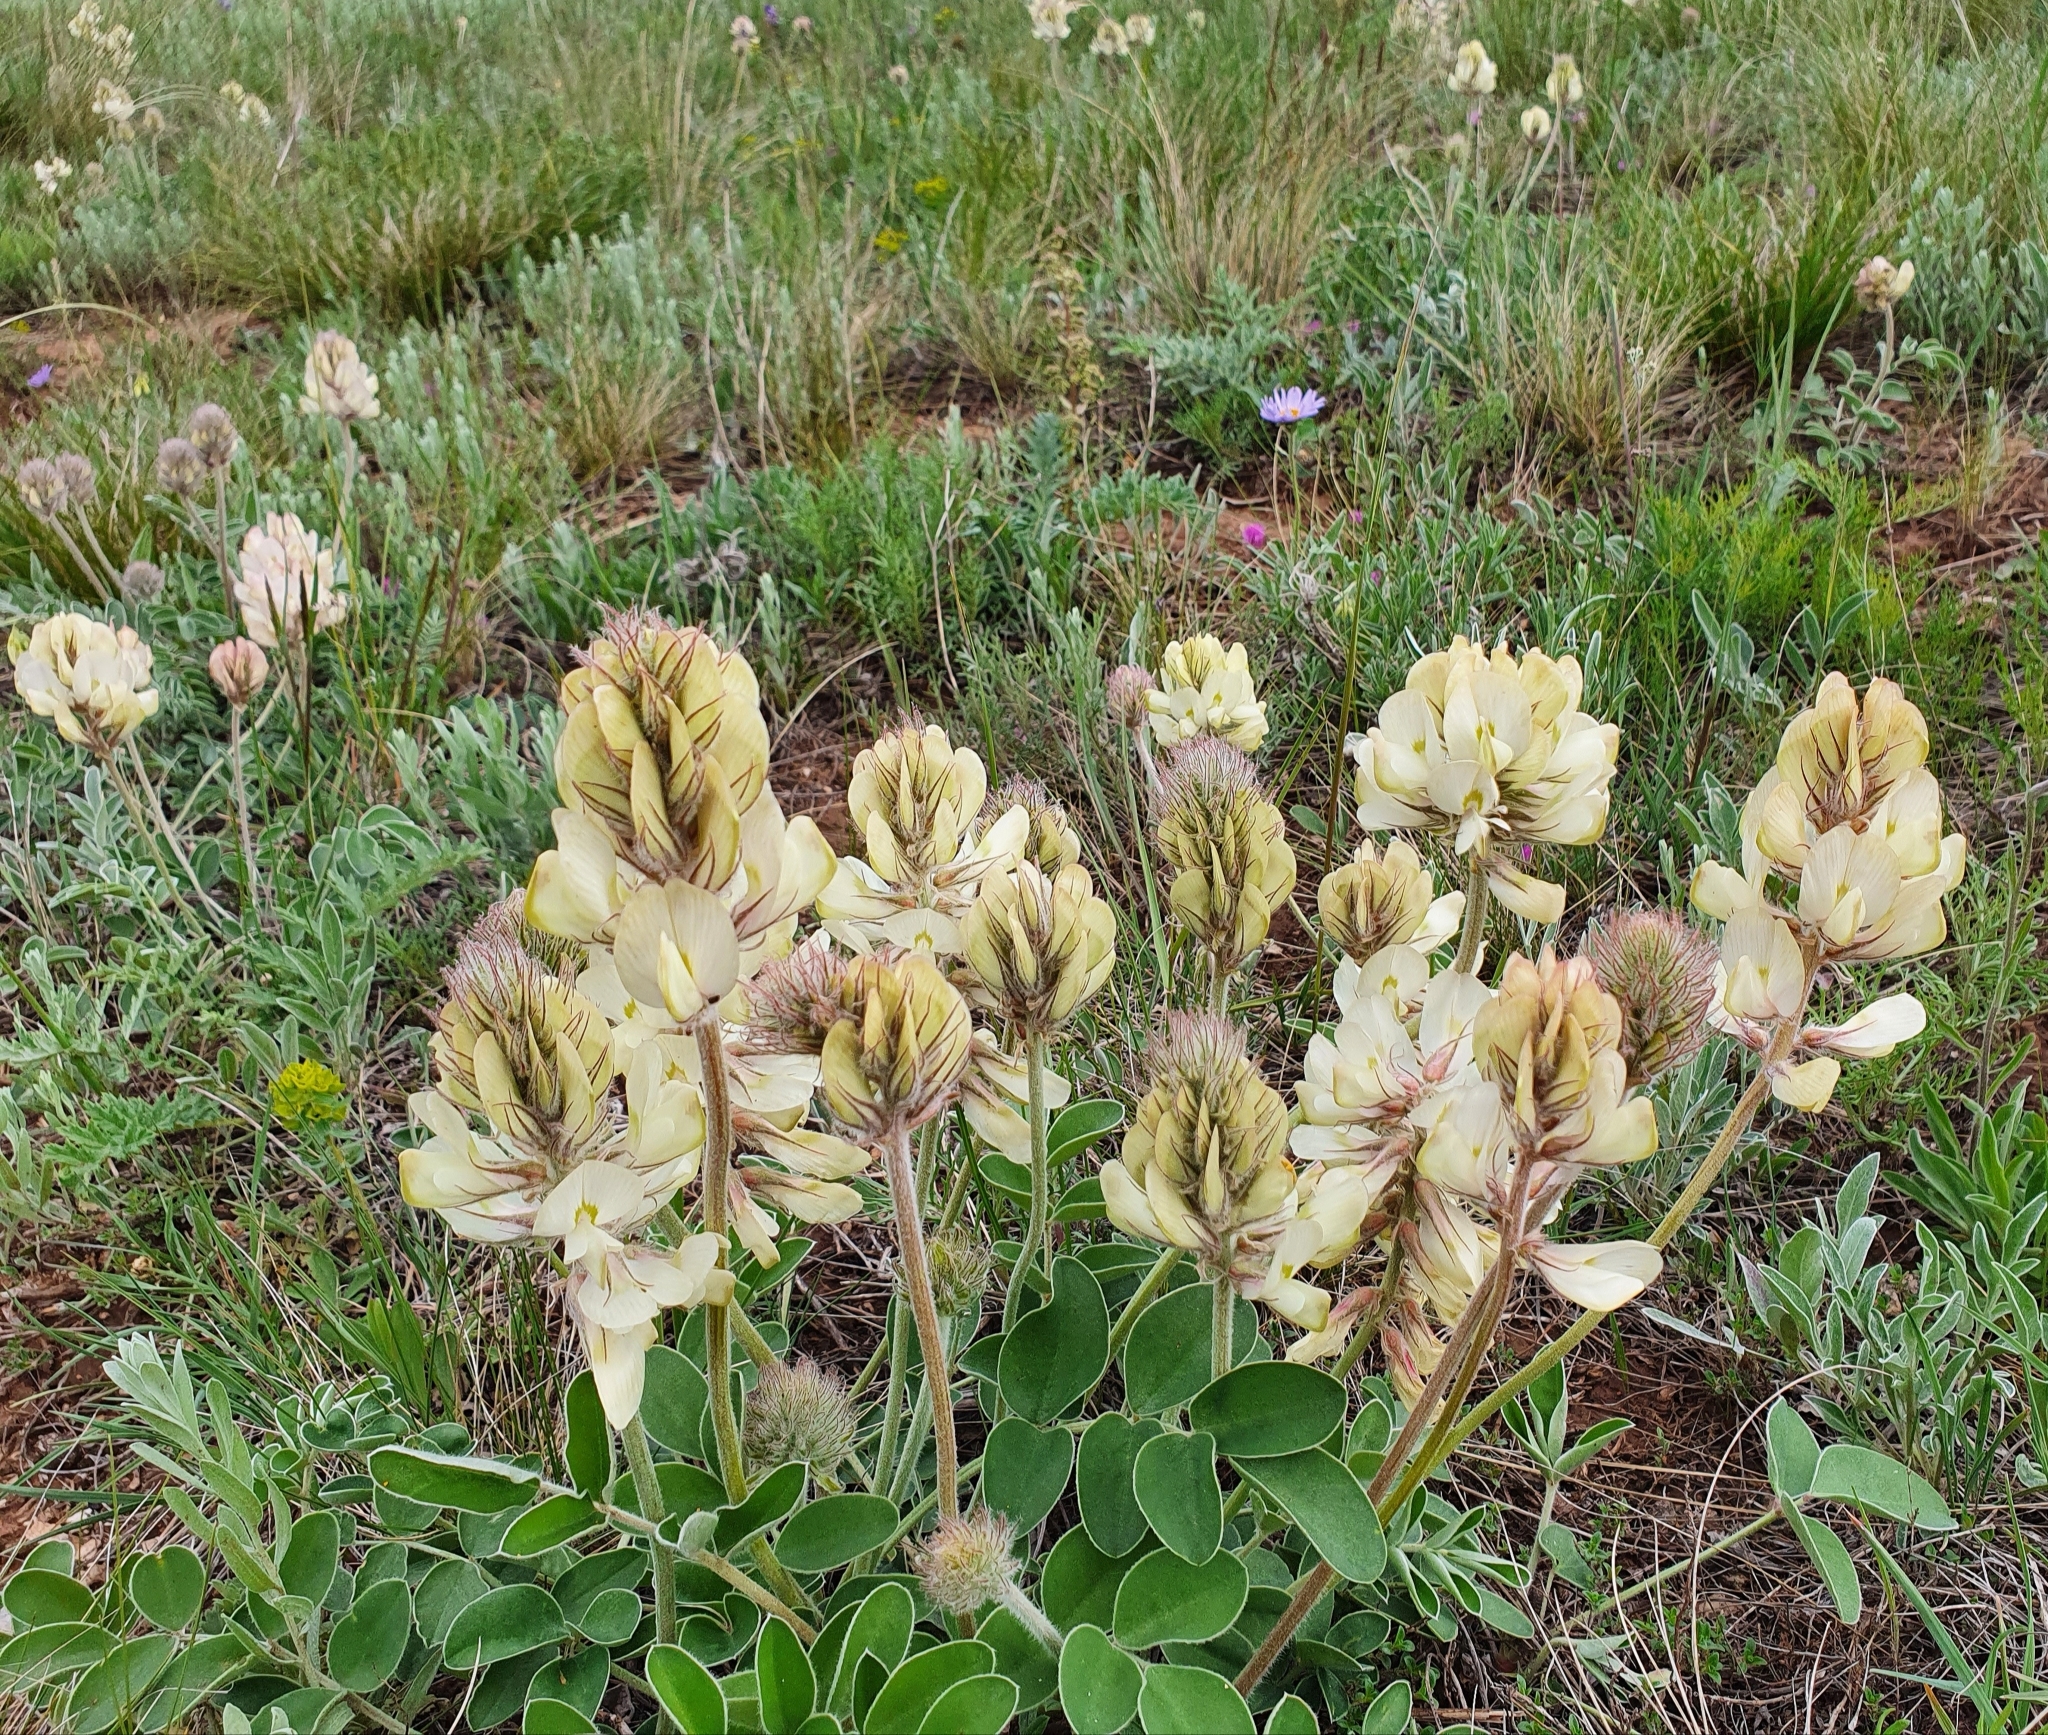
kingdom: Plantae
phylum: Tracheophyta
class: Magnoliopsida
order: Fabales
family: Fabaceae
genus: Hedysarum
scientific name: Hedysarum grandiflorum
